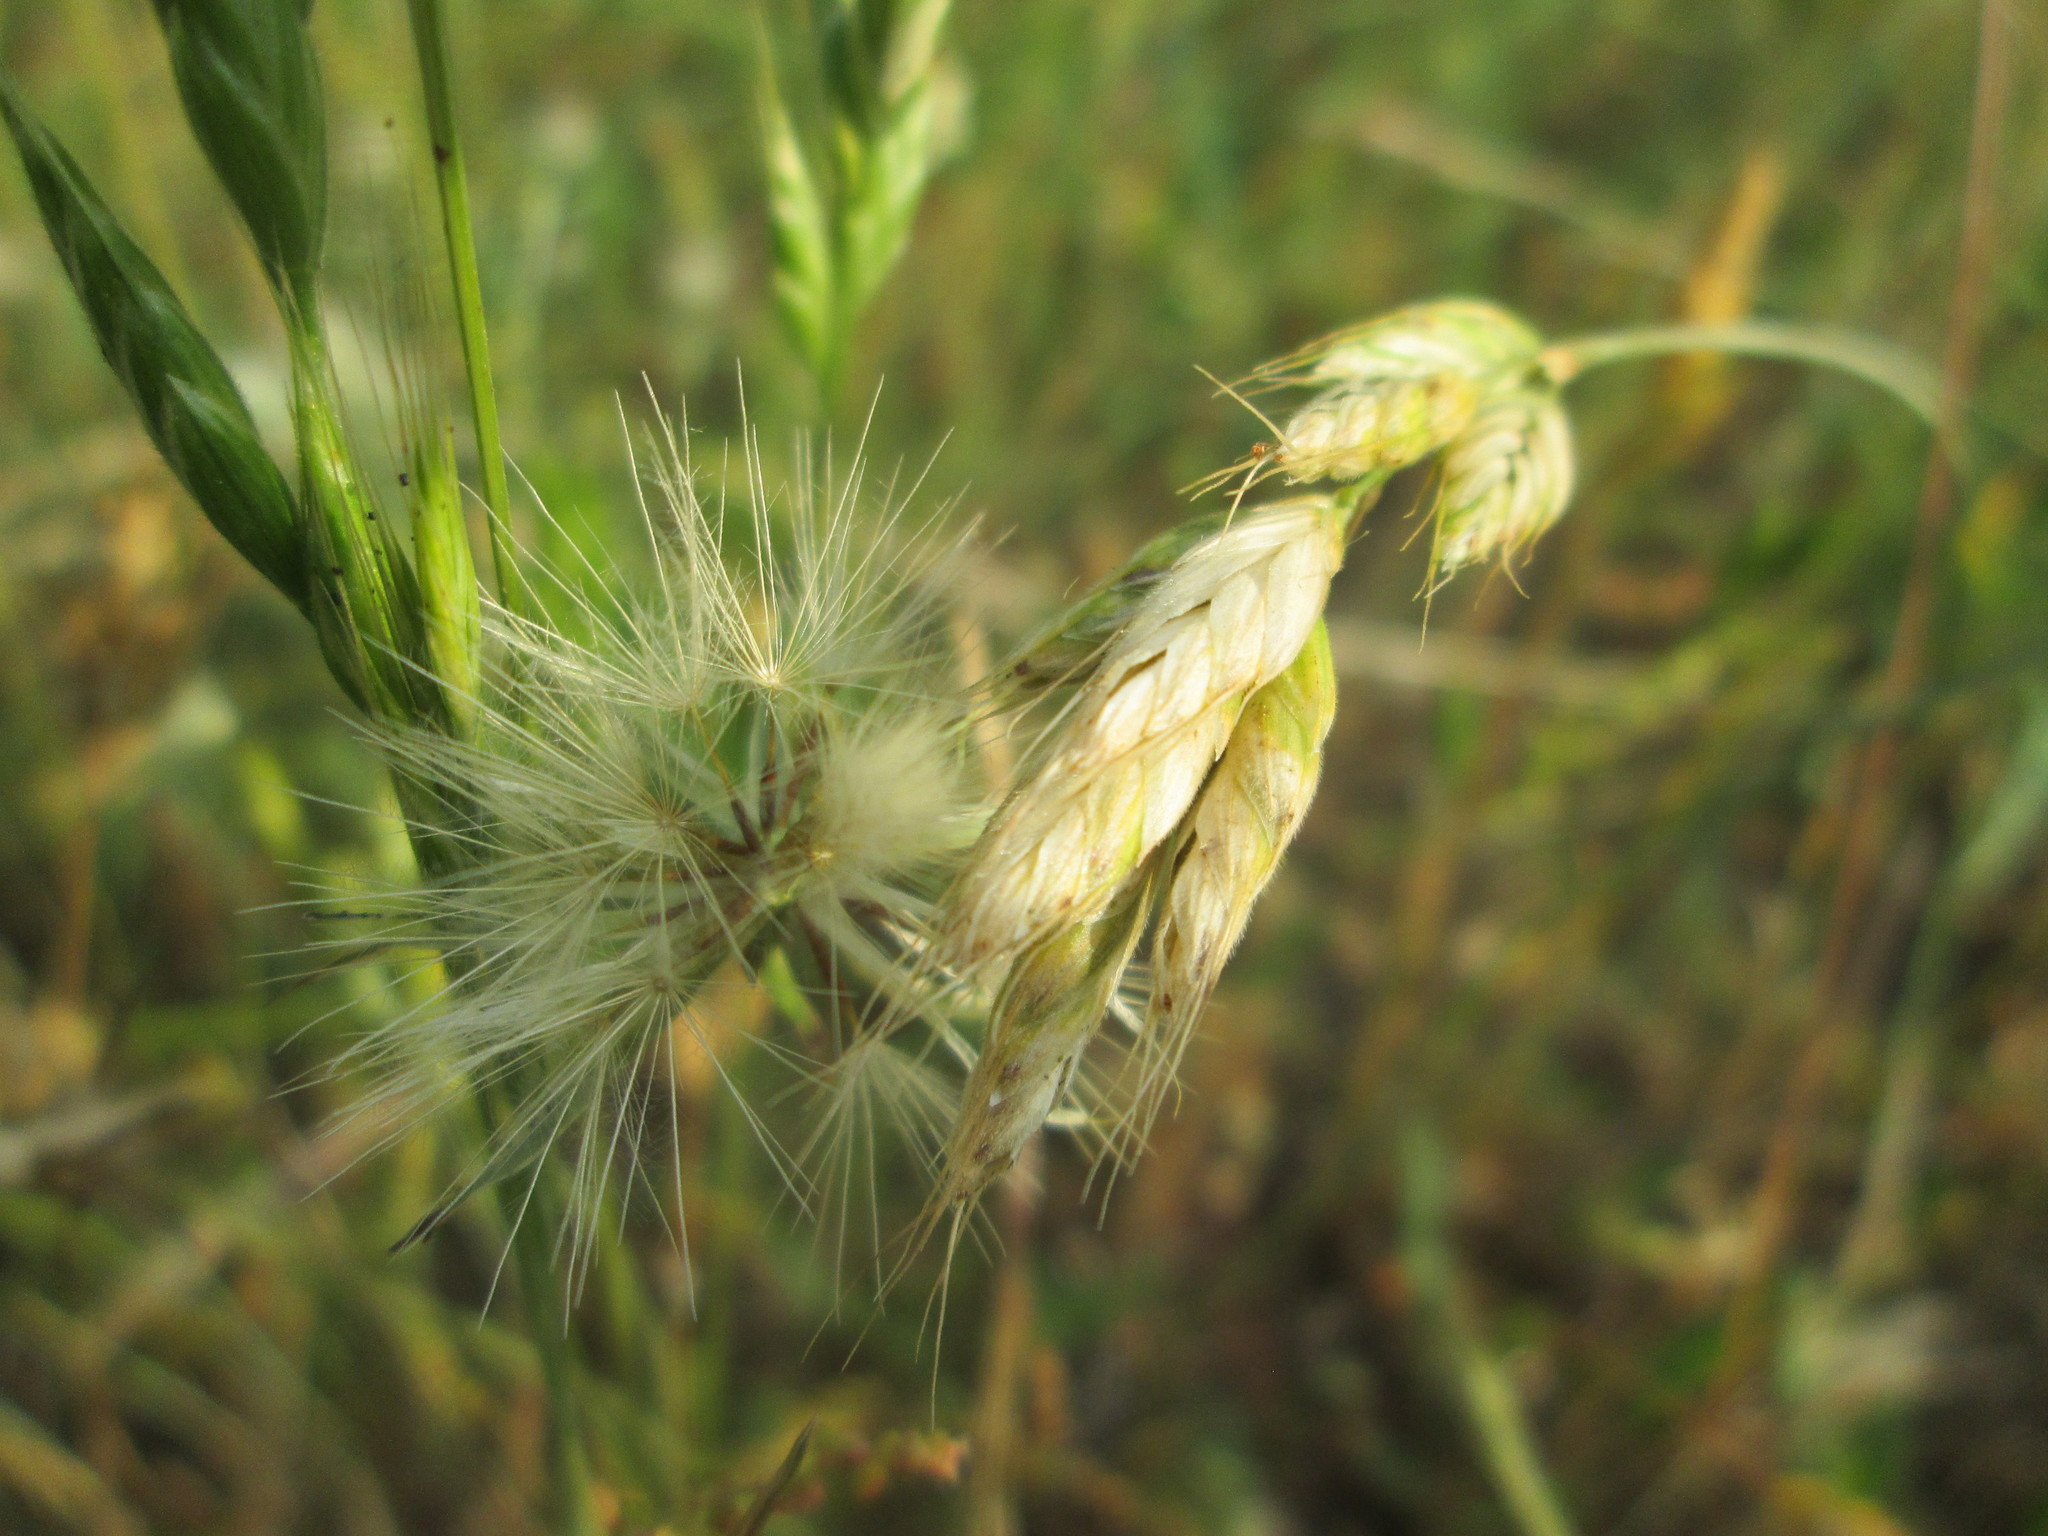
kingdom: Plantae
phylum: Tracheophyta
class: Liliopsida
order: Poales
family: Poaceae
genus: Bromus
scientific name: Bromus hordeaceus
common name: Soft brome
